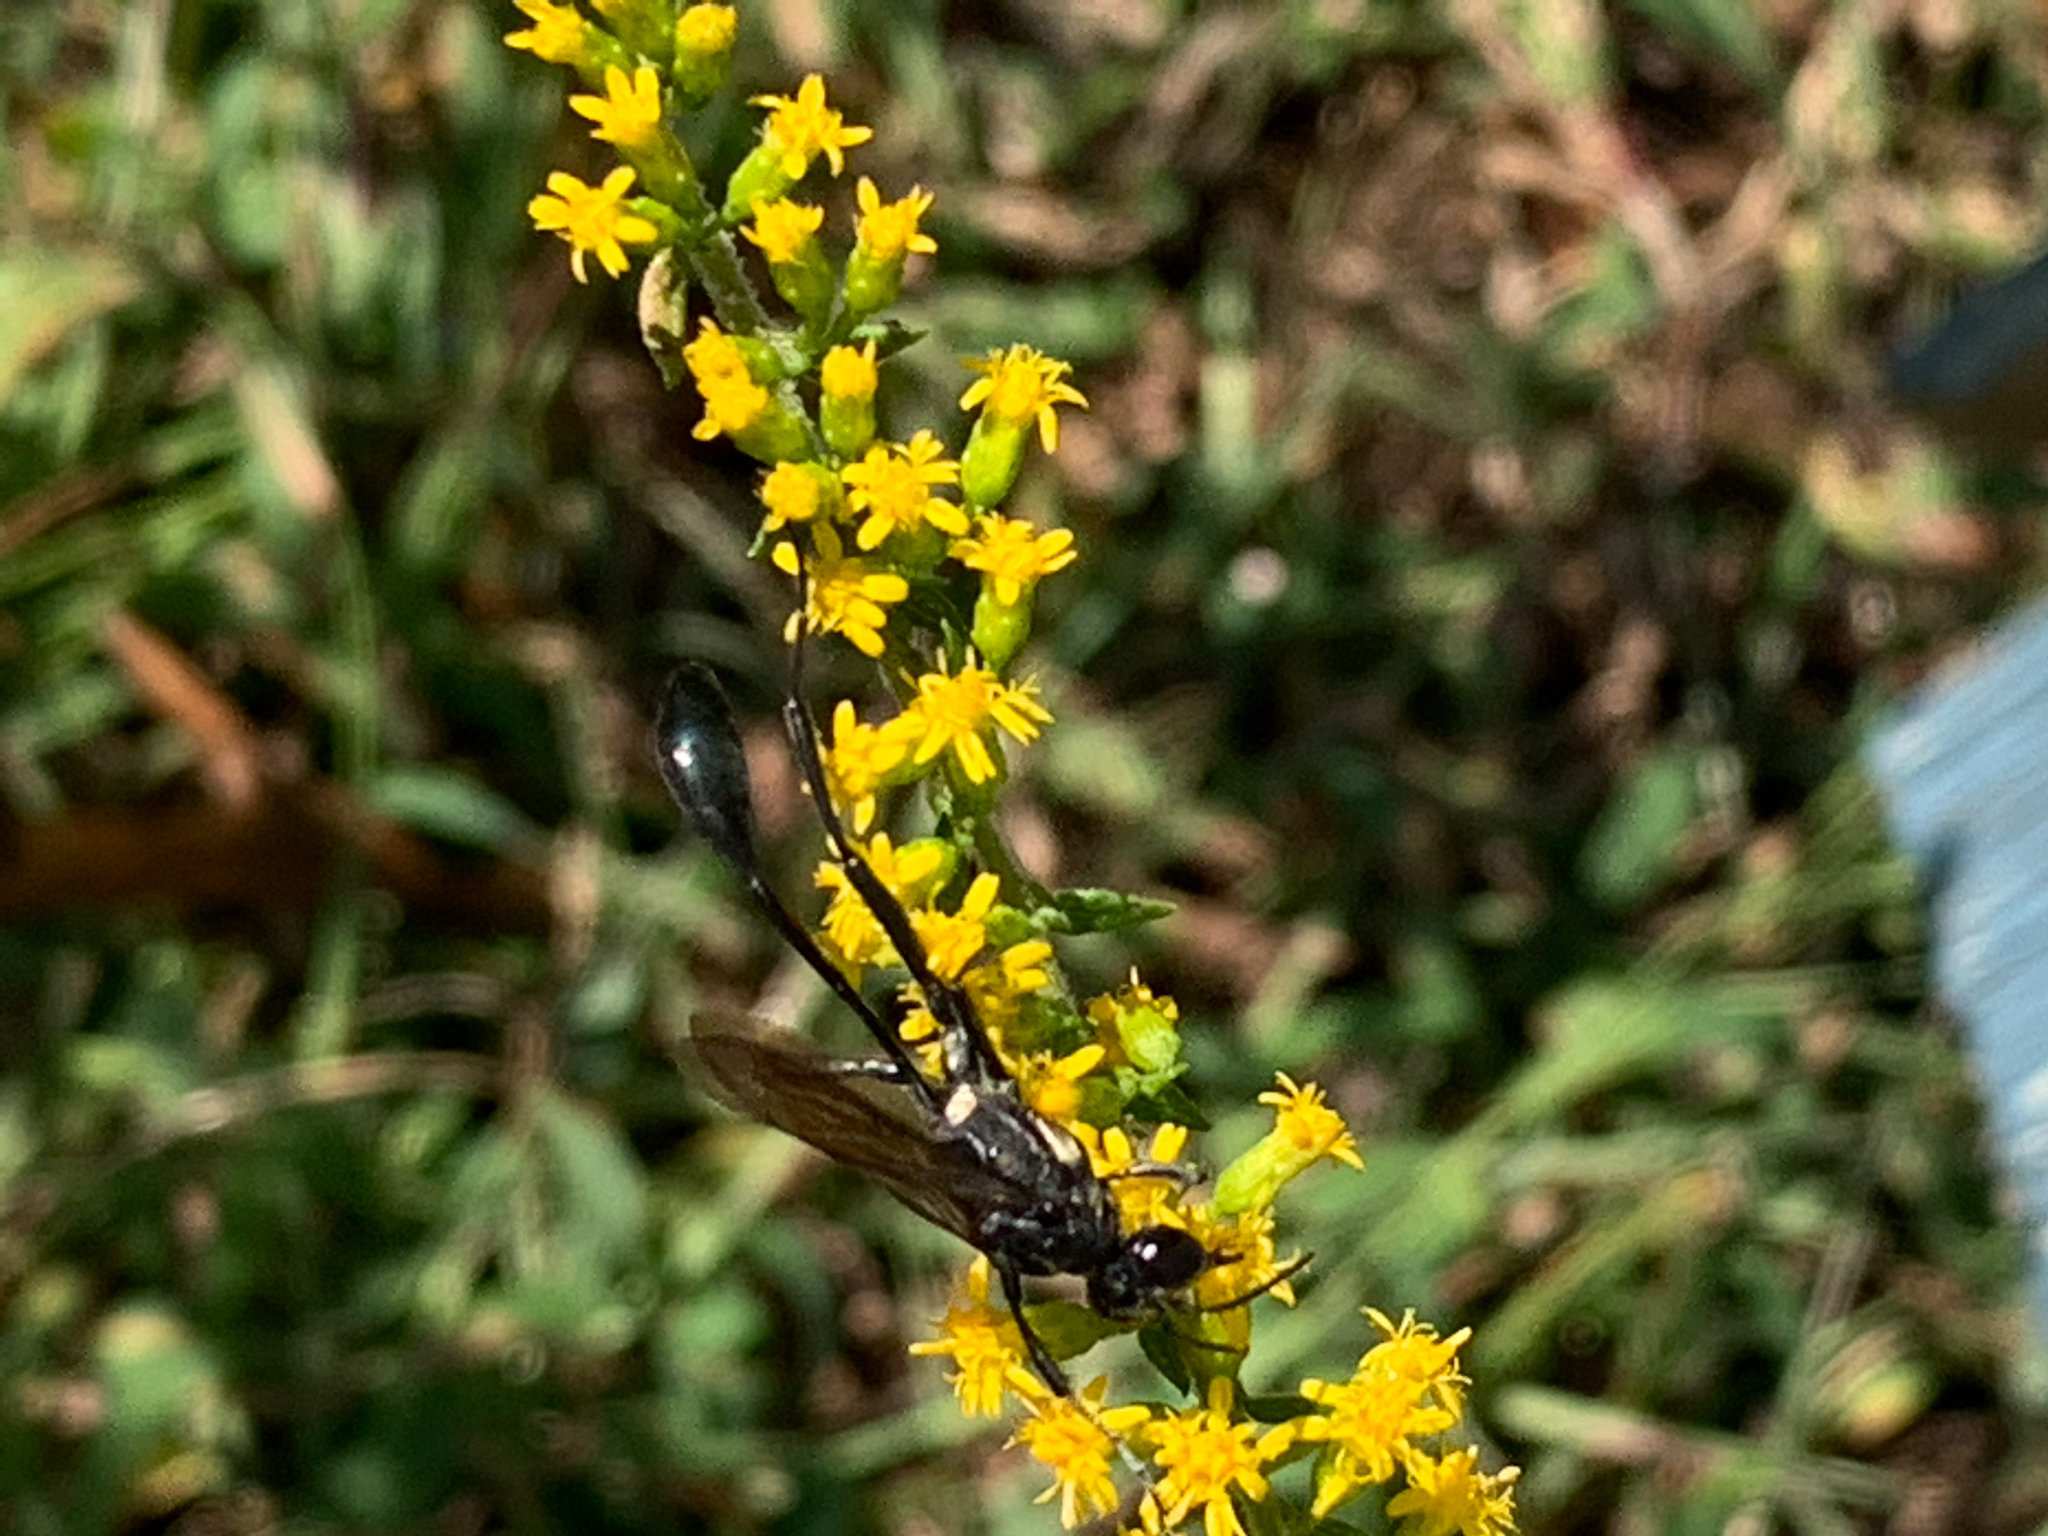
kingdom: Animalia
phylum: Arthropoda
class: Insecta
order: Hymenoptera
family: Sphecidae
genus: Eremnophila
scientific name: Eremnophila aureonotata
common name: Gold-marked thread-waisted wasp
